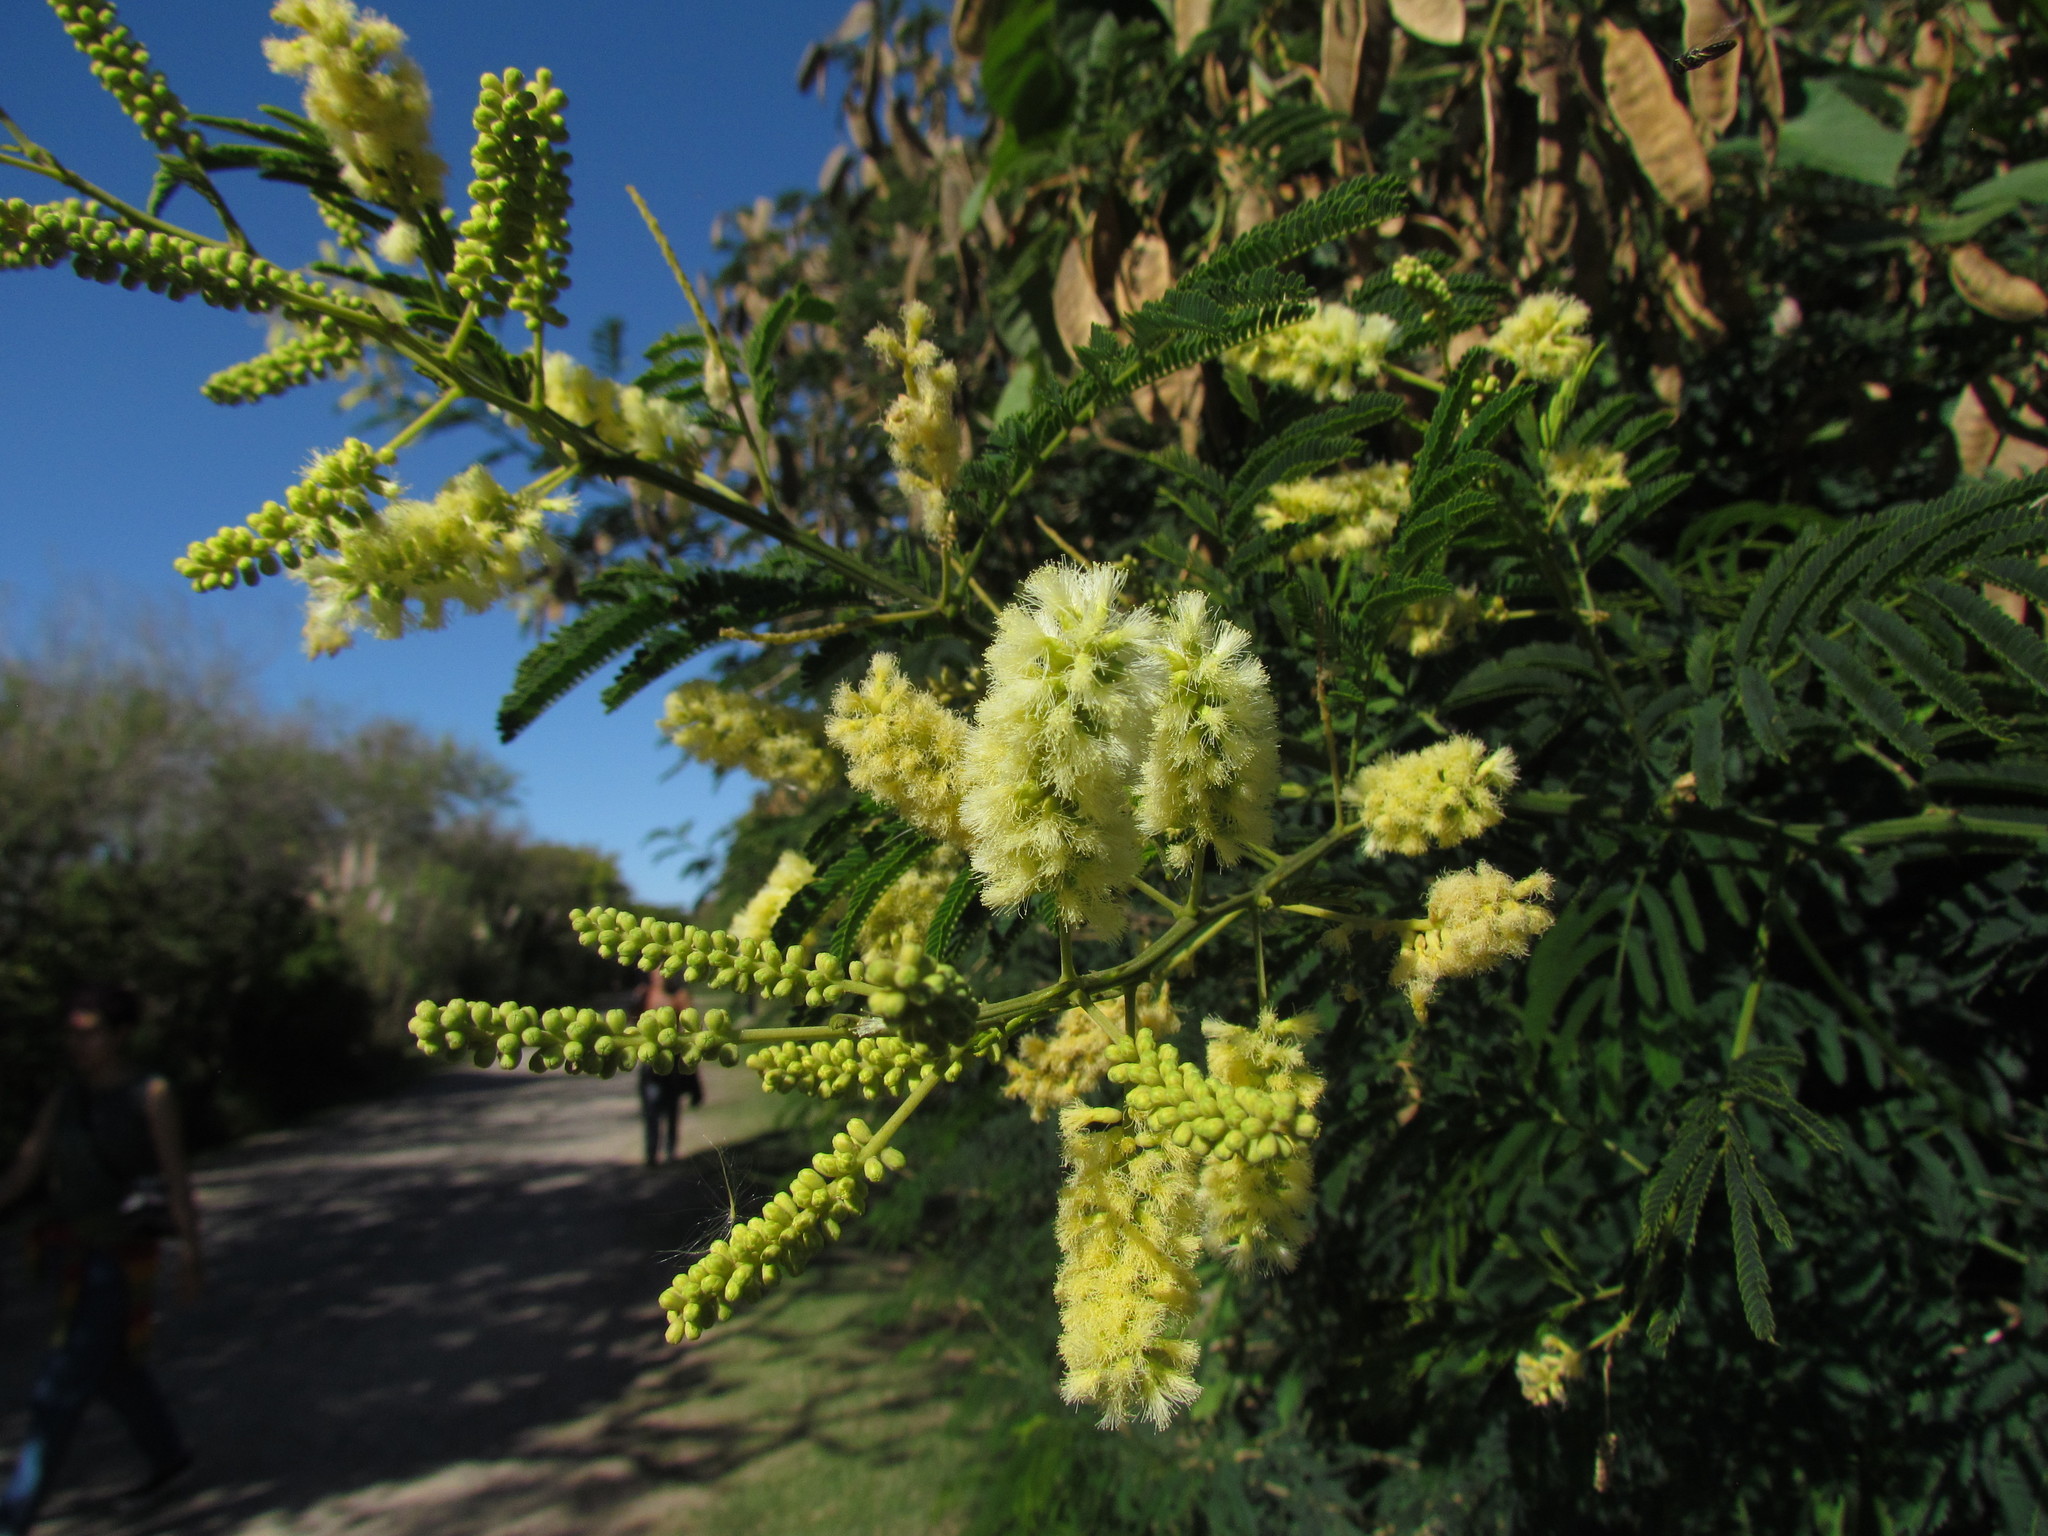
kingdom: Plantae
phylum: Tracheophyta
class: Magnoliopsida
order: Fabales
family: Fabaceae
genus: Senegalia
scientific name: Senegalia bonariensis
